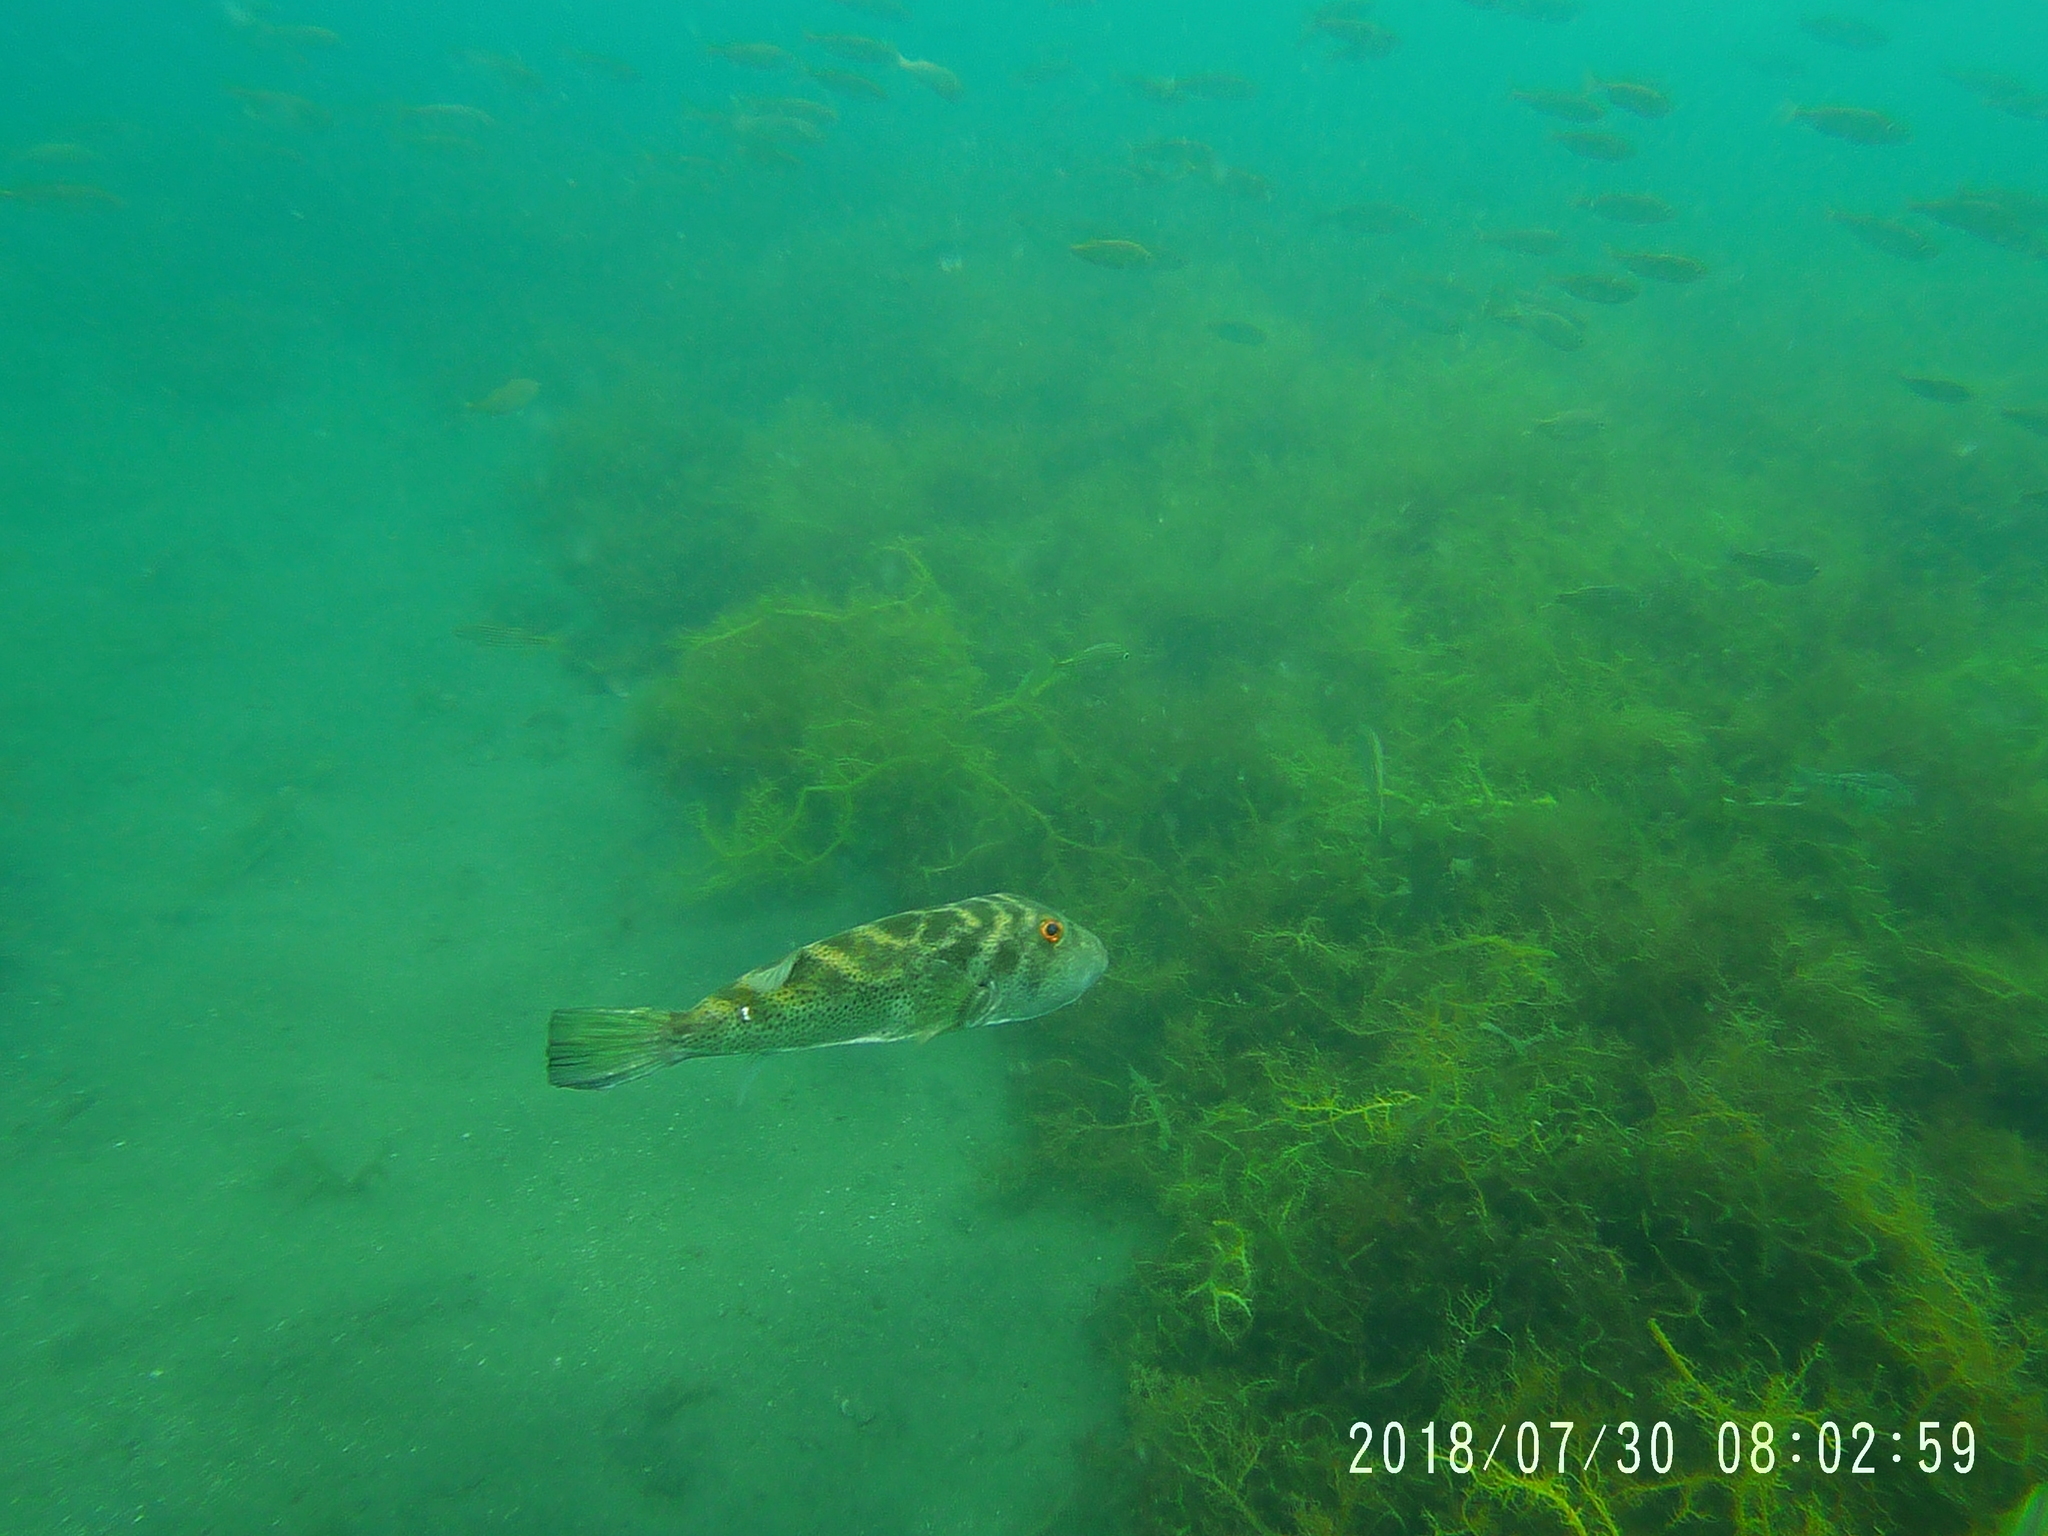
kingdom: Animalia
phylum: Chordata
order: Tetraodontiformes
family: Tetraodontidae
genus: Sphoeroides
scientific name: Sphoeroides annulatus
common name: Bullseye puffer
